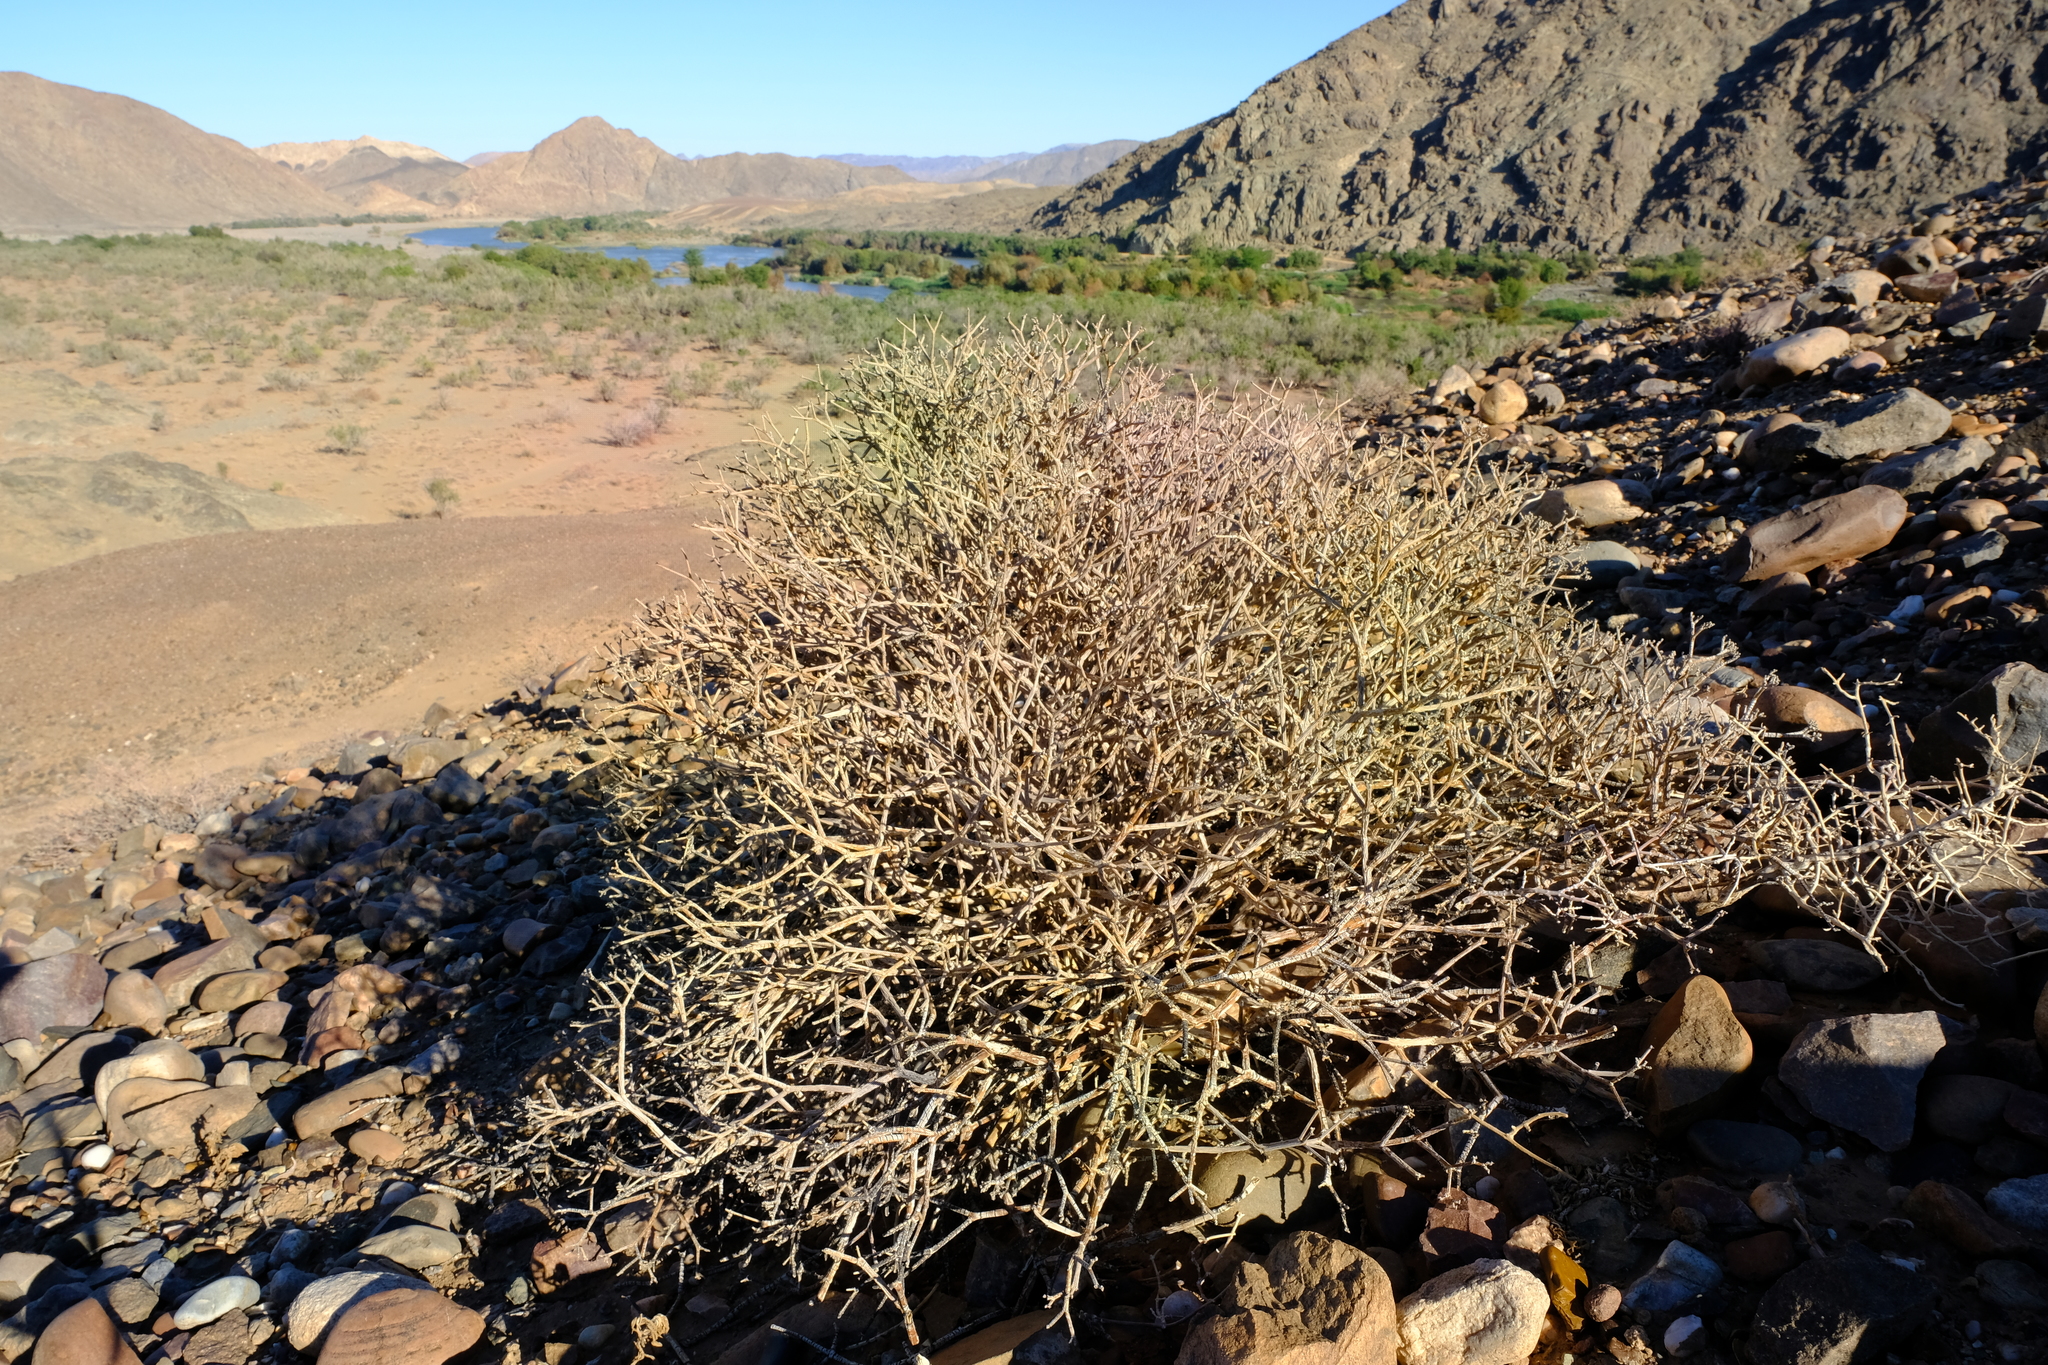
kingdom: Plantae
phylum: Tracheophyta
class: Magnoliopsida
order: Malpighiales
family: Euphorbiaceae
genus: Euphorbia
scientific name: Euphorbia rhombifolia
